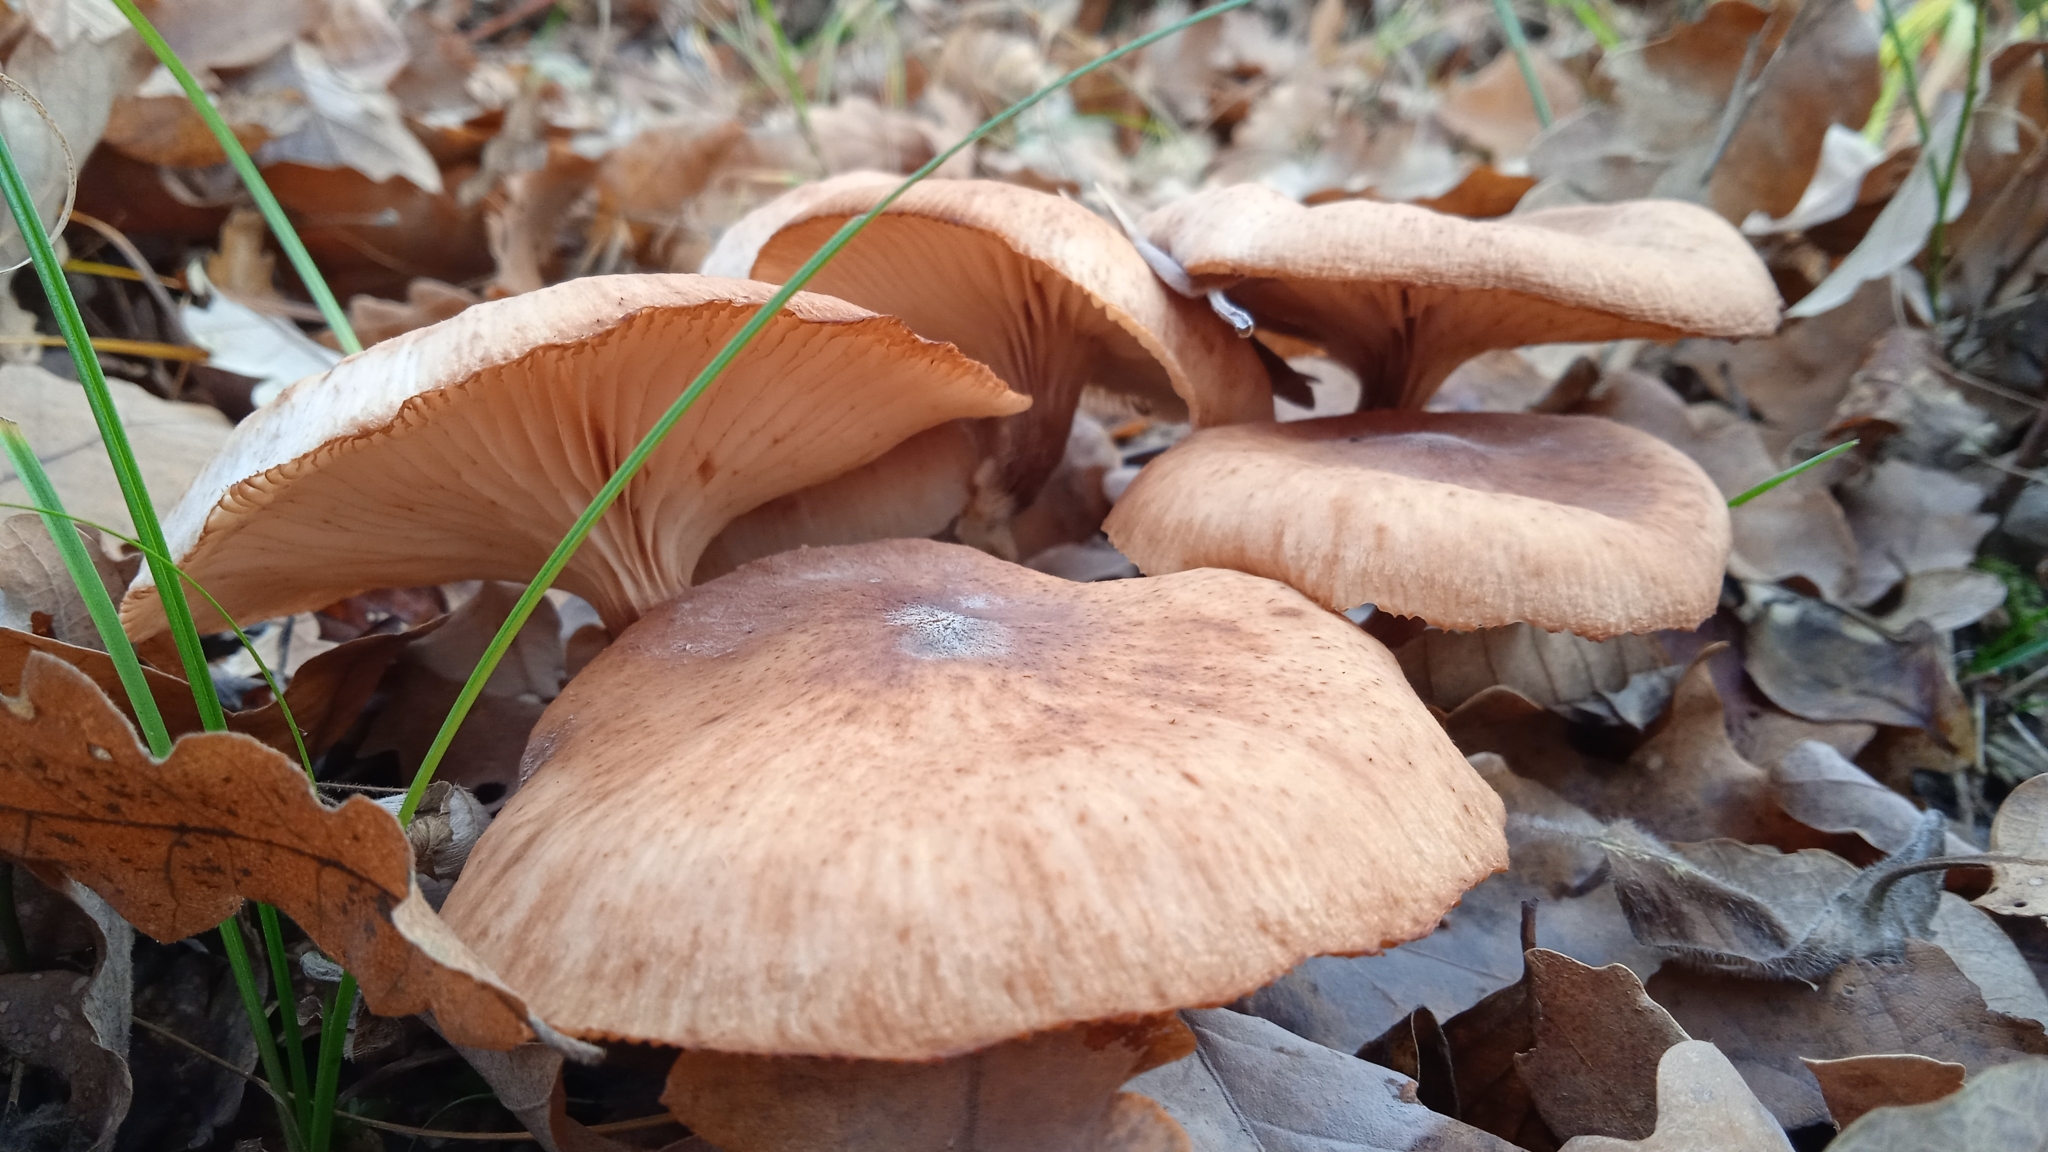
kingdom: Fungi
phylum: Basidiomycota
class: Agaricomycetes
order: Agaricales
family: Physalacriaceae
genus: Armillaria
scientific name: Armillaria mellea
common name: Honey fungus
